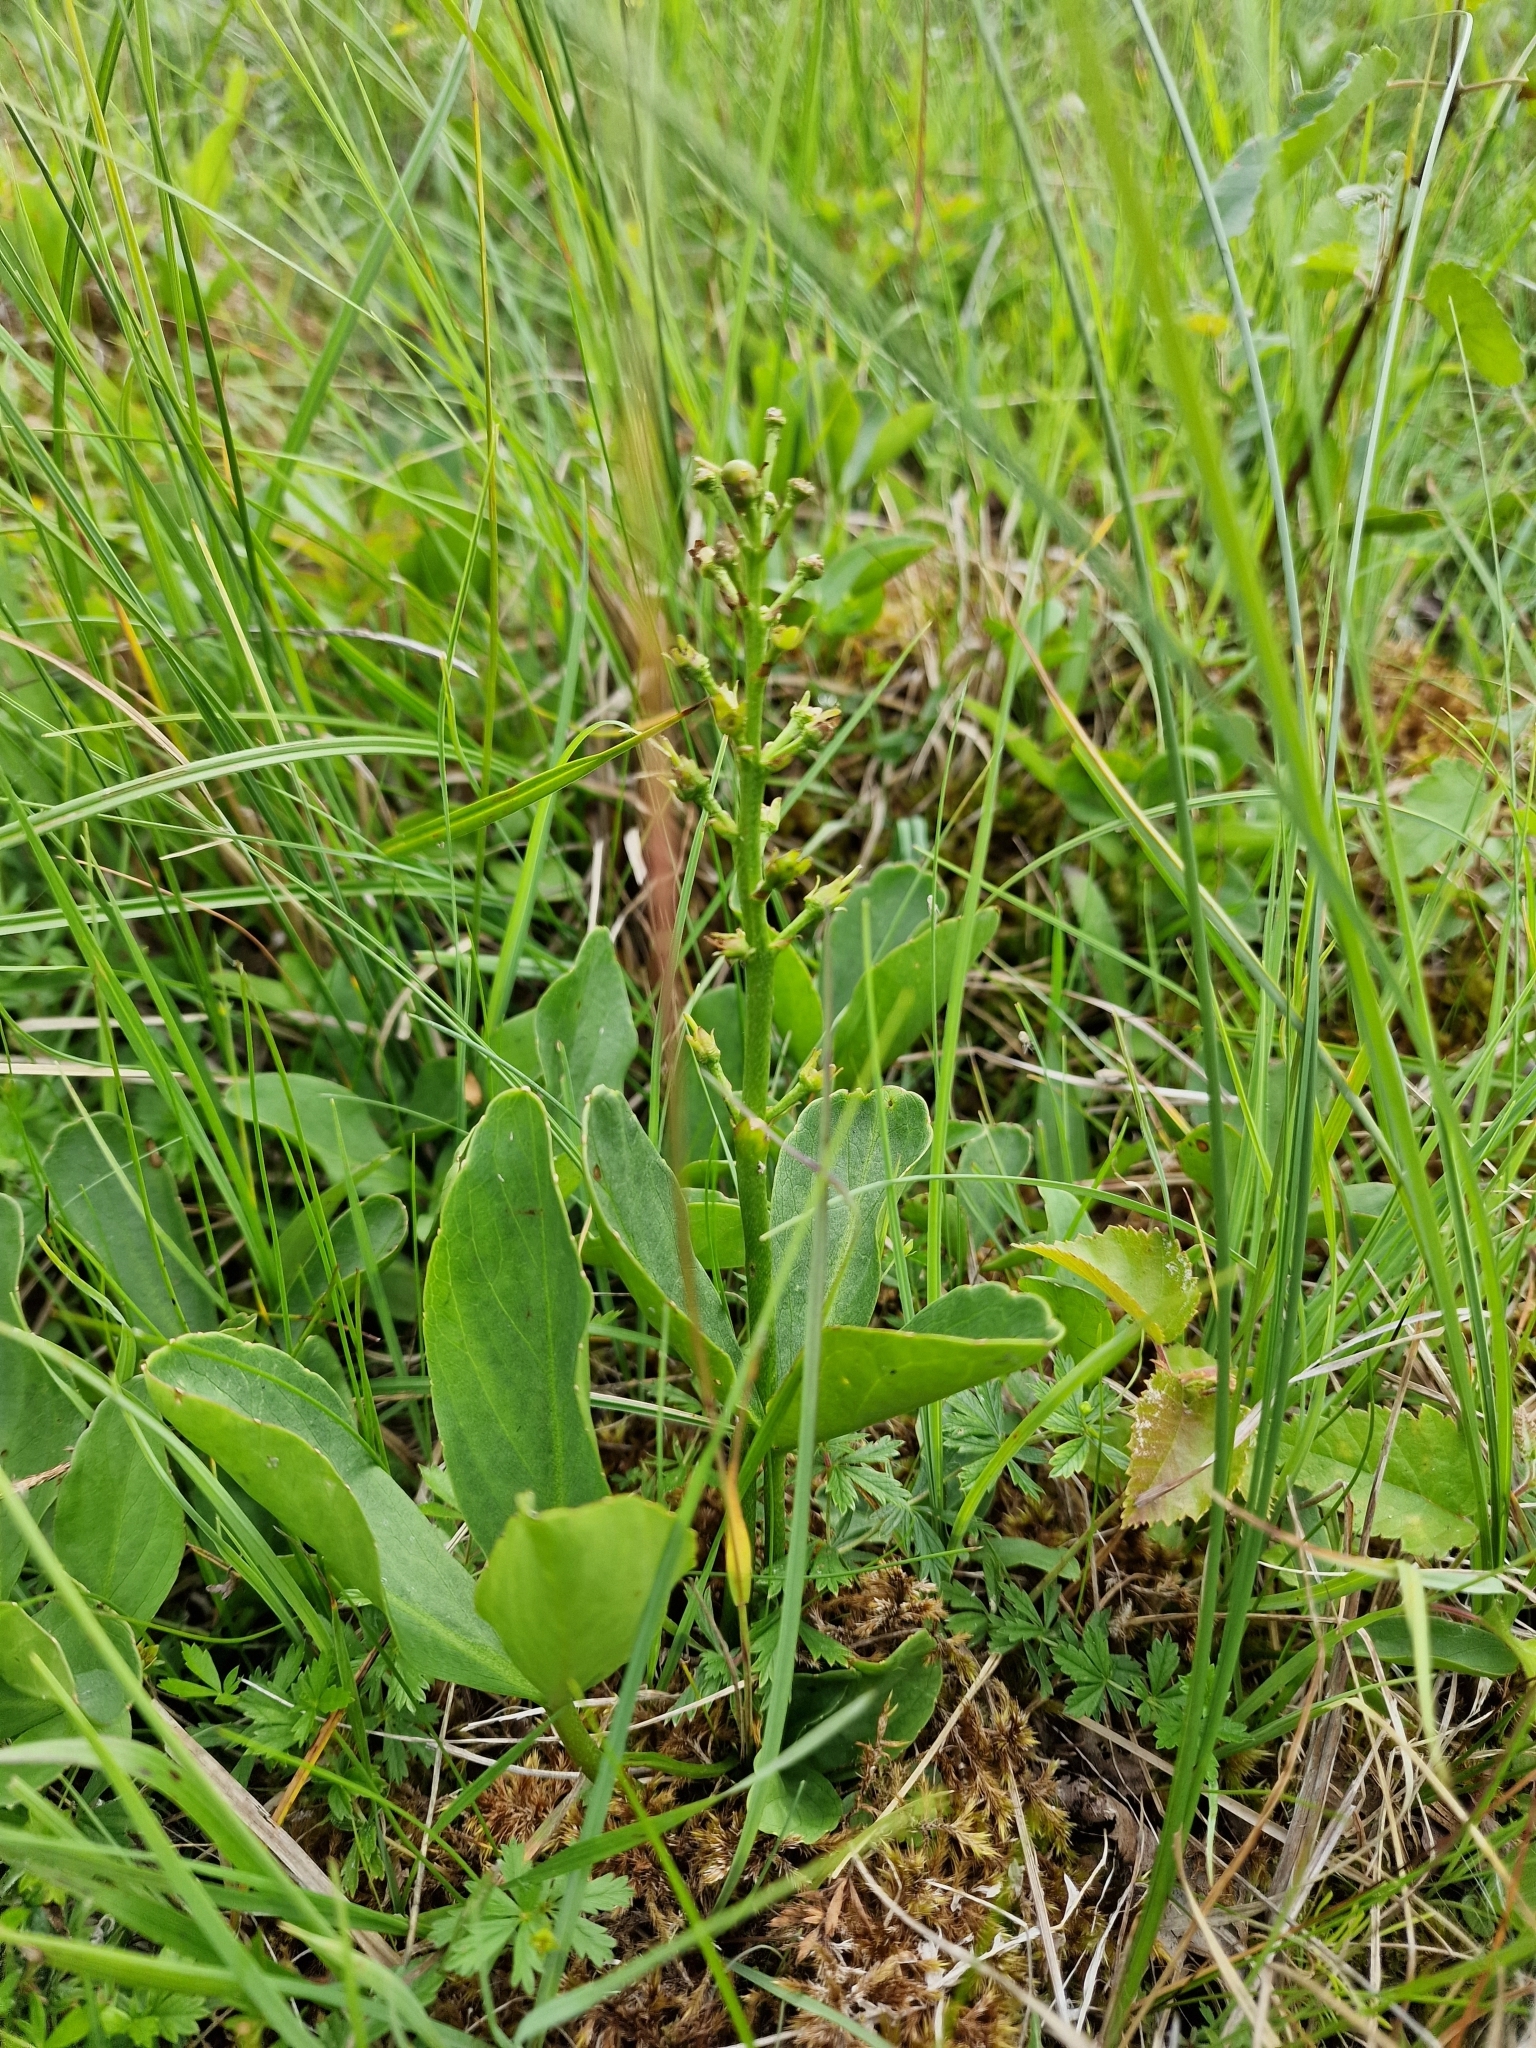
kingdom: Plantae
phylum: Tracheophyta
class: Magnoliopsida
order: Asterales
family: Menyanthaceae
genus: Menyanthes
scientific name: Menyanthes trifoliata
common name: Bogbean
